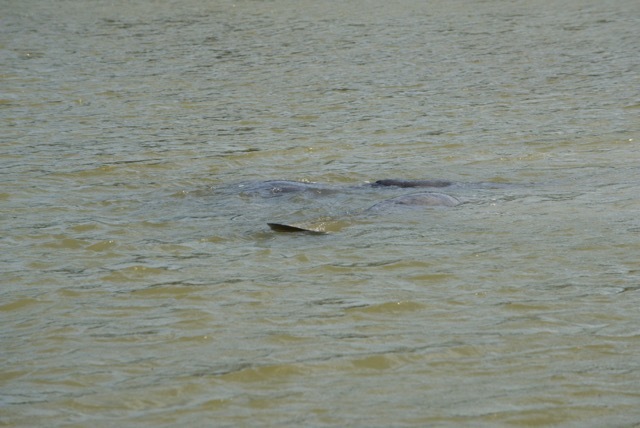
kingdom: Animalia
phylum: Chordata
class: Mammalia
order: Sirenia
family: Trichechidae
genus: Trichechus
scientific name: Trichechus manatus
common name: West indian manatee
